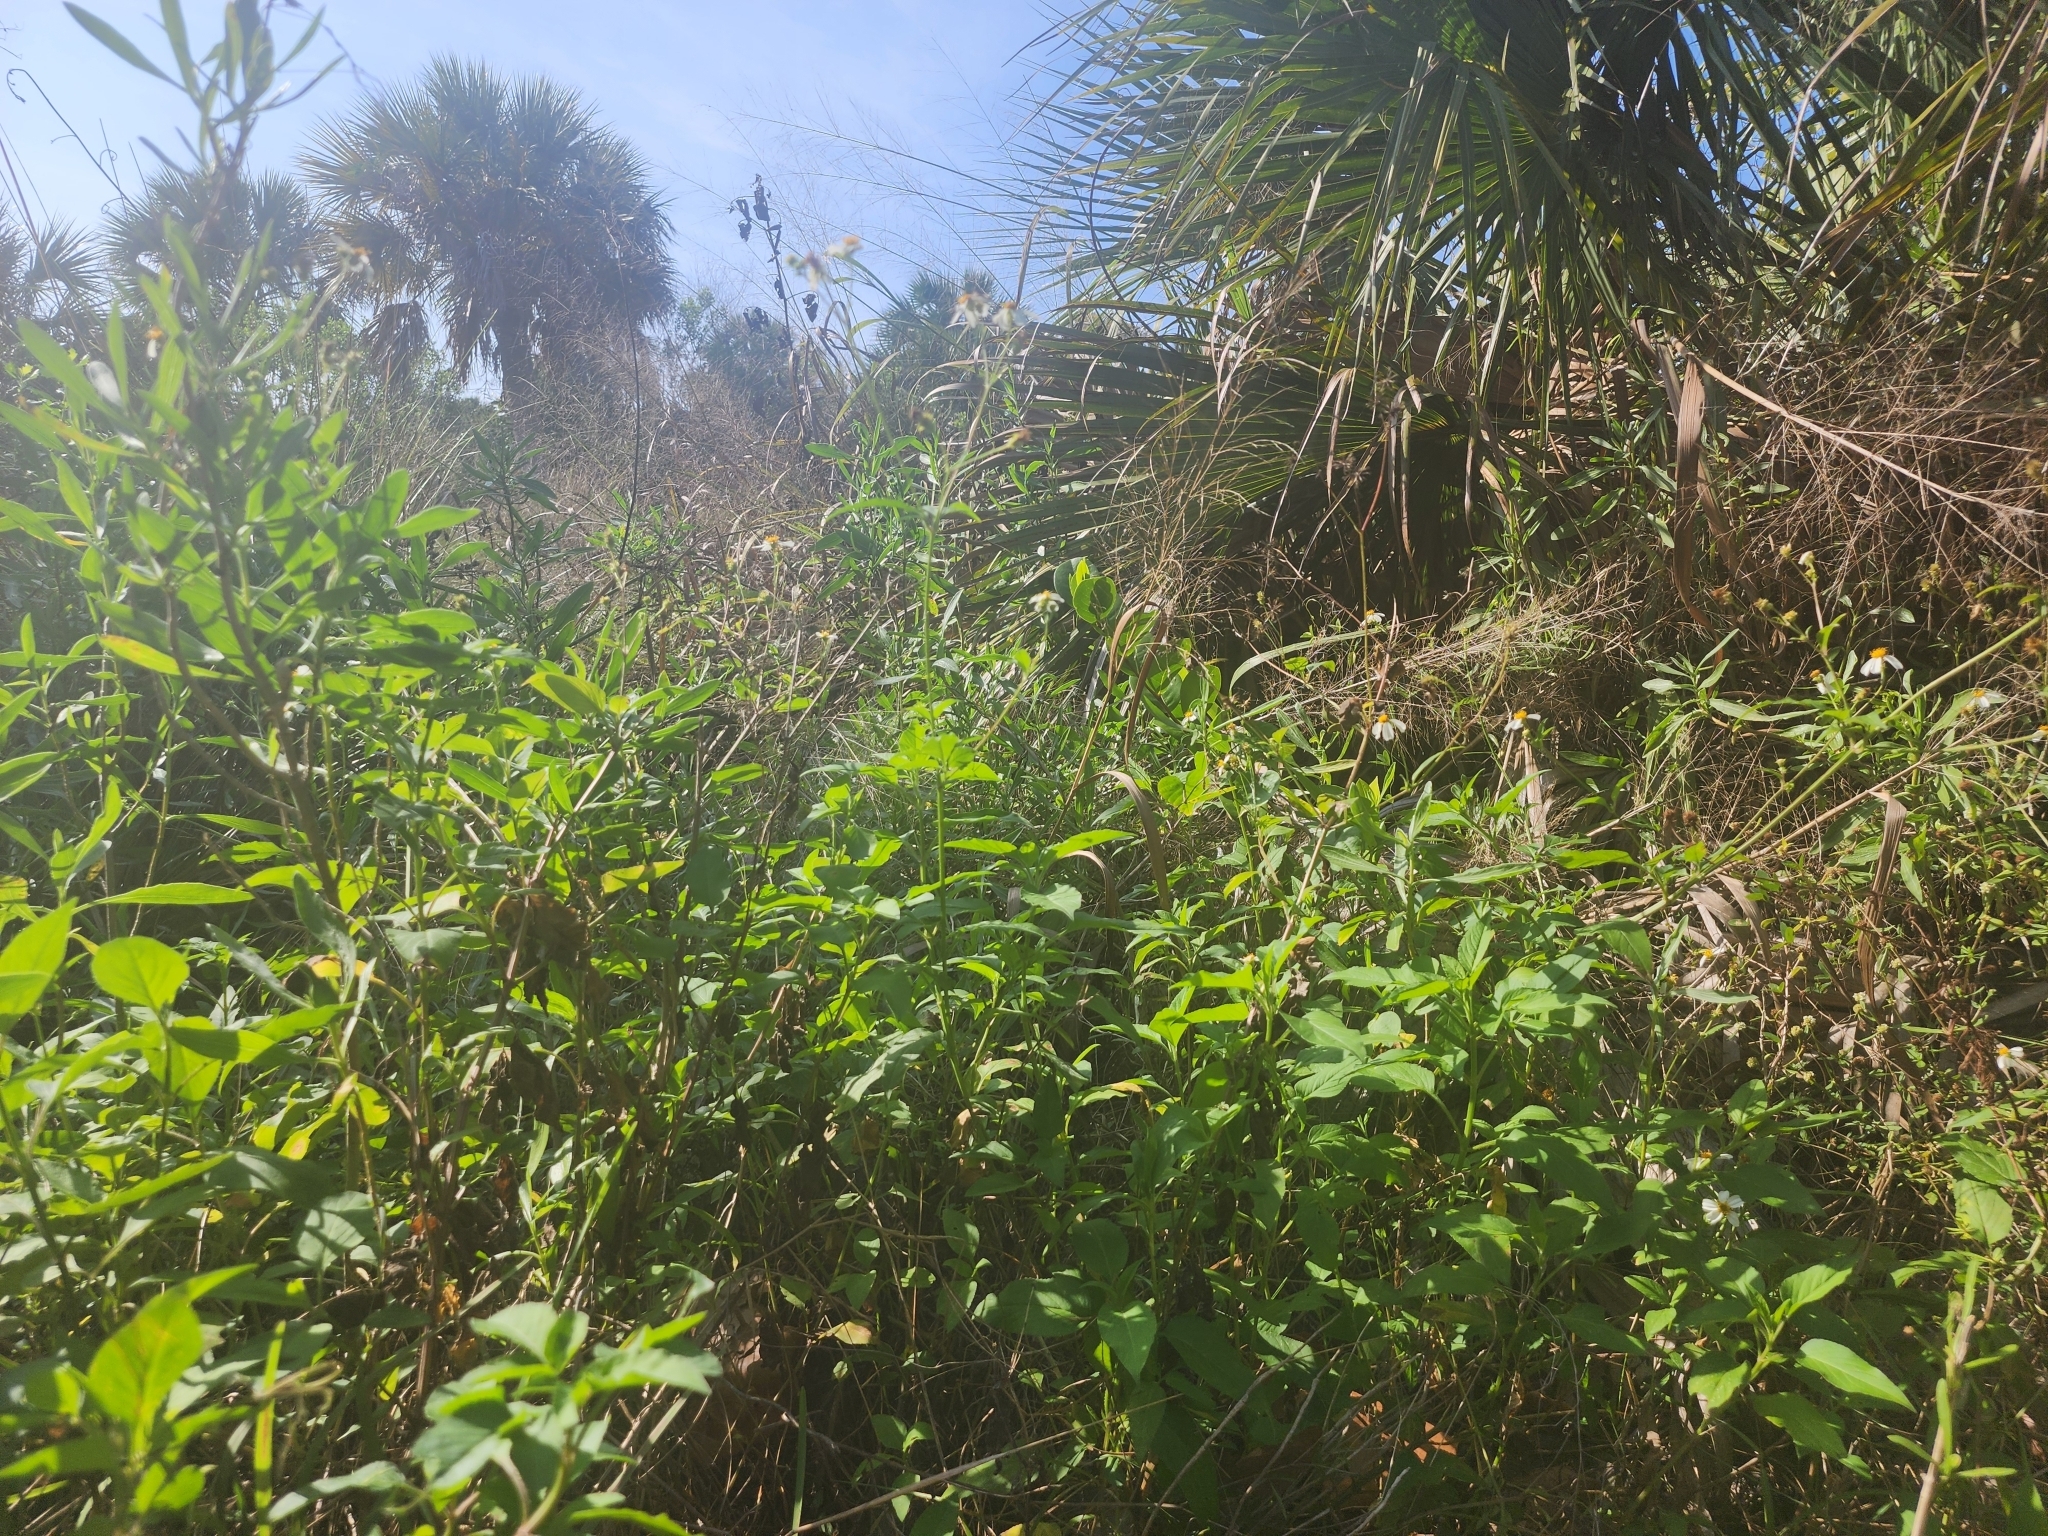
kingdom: Plantae
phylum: Tracheophyta
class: Magnoliopsida
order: Asterales
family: Asteraceae
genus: Bidens
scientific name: Bidens alba
